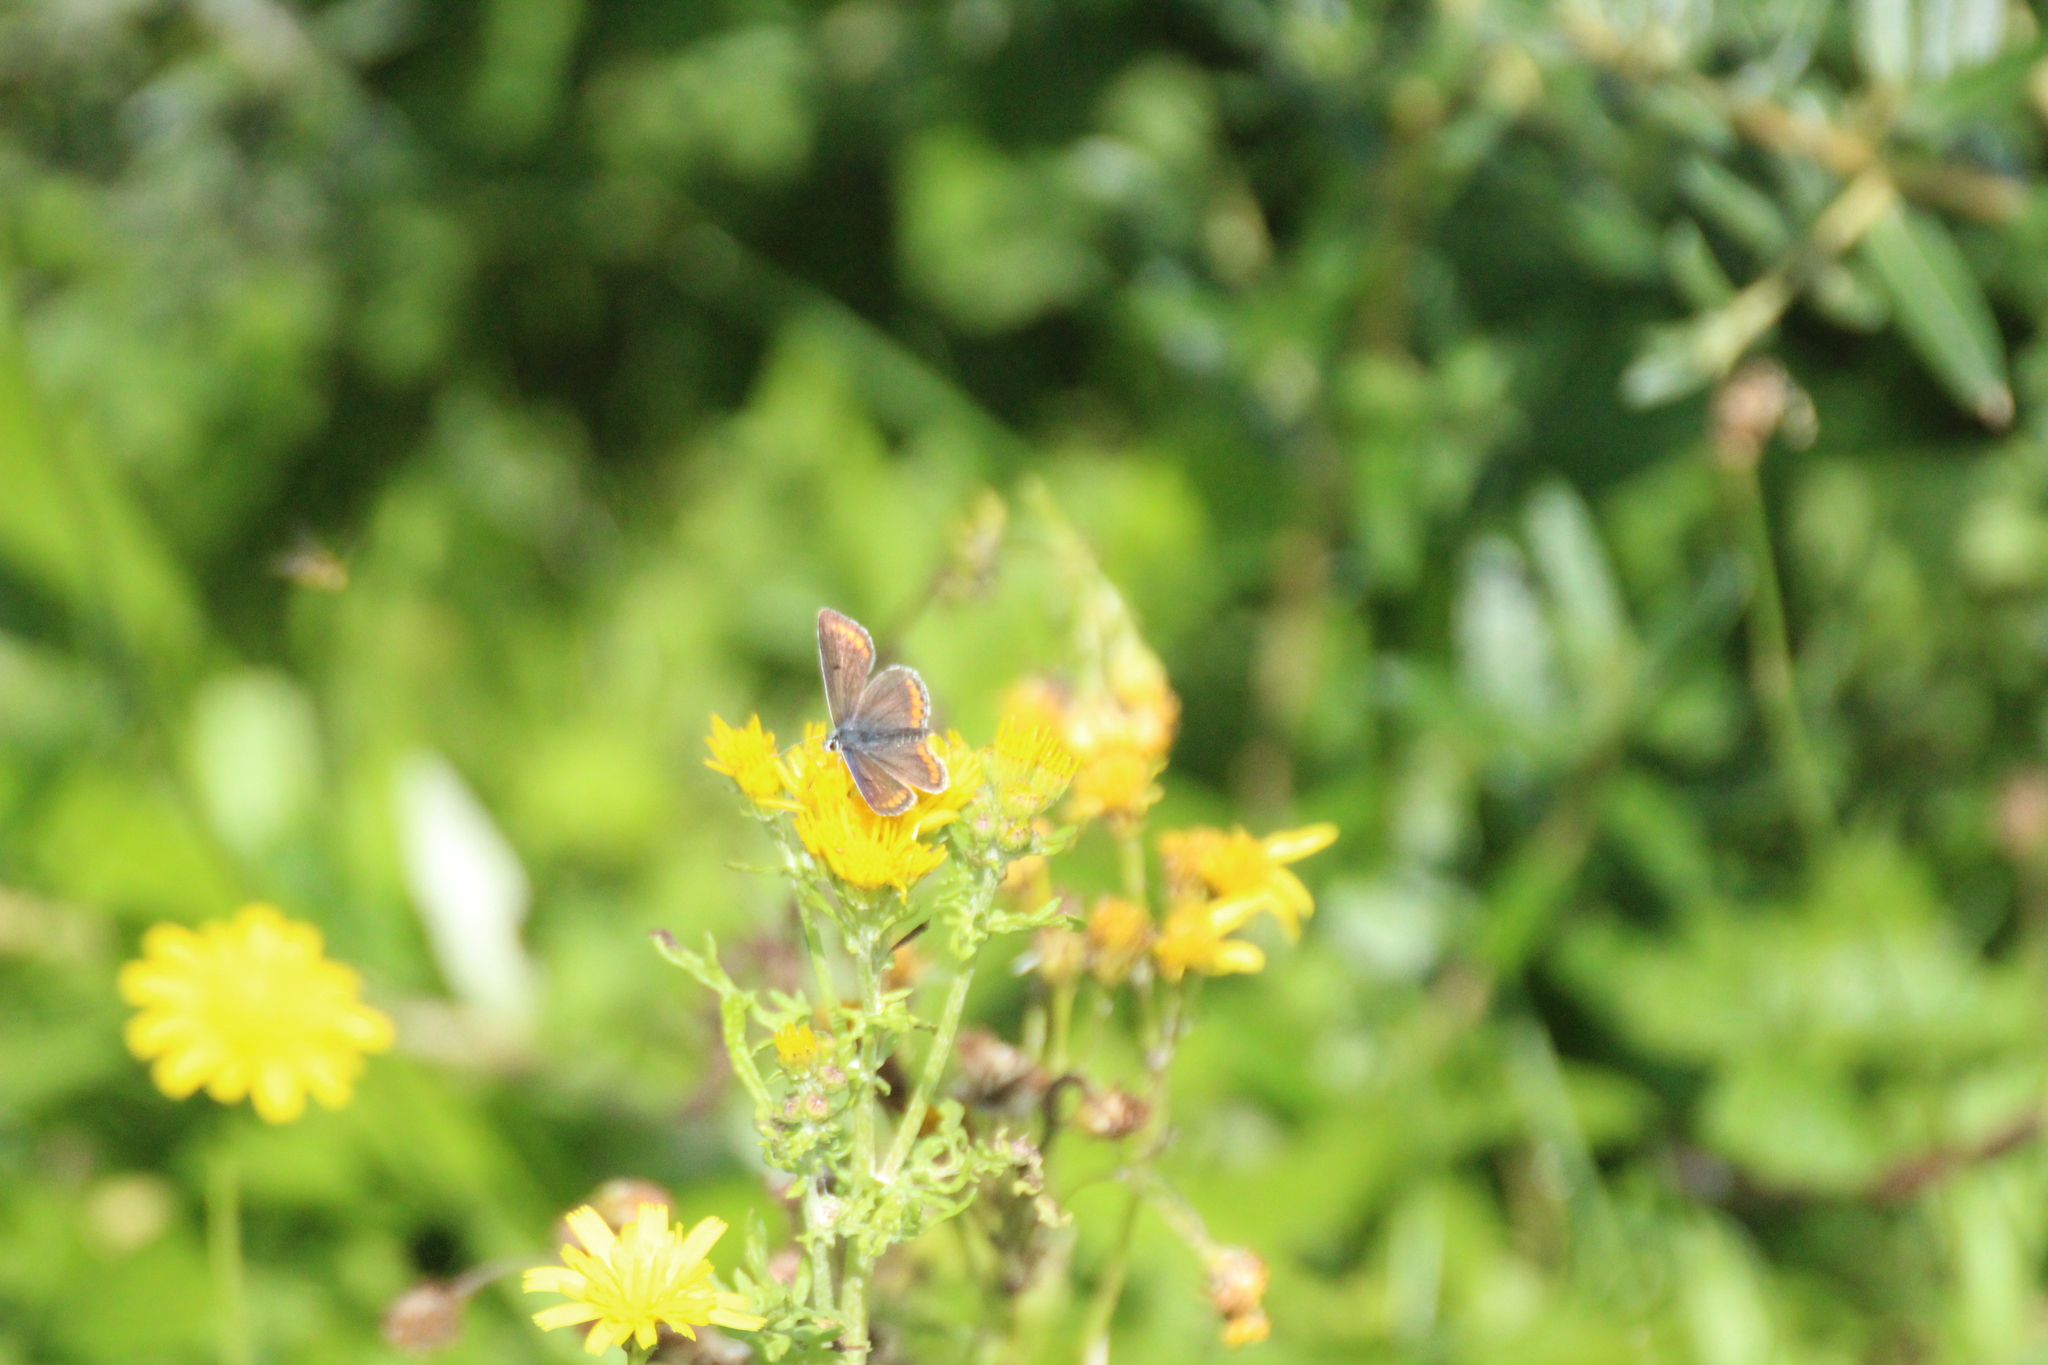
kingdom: Animalia
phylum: Arthropoda
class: Insecta
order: Lepidoptera
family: Lycaenidae
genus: Aricia
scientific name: Aricia agestis
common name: Brown argus
